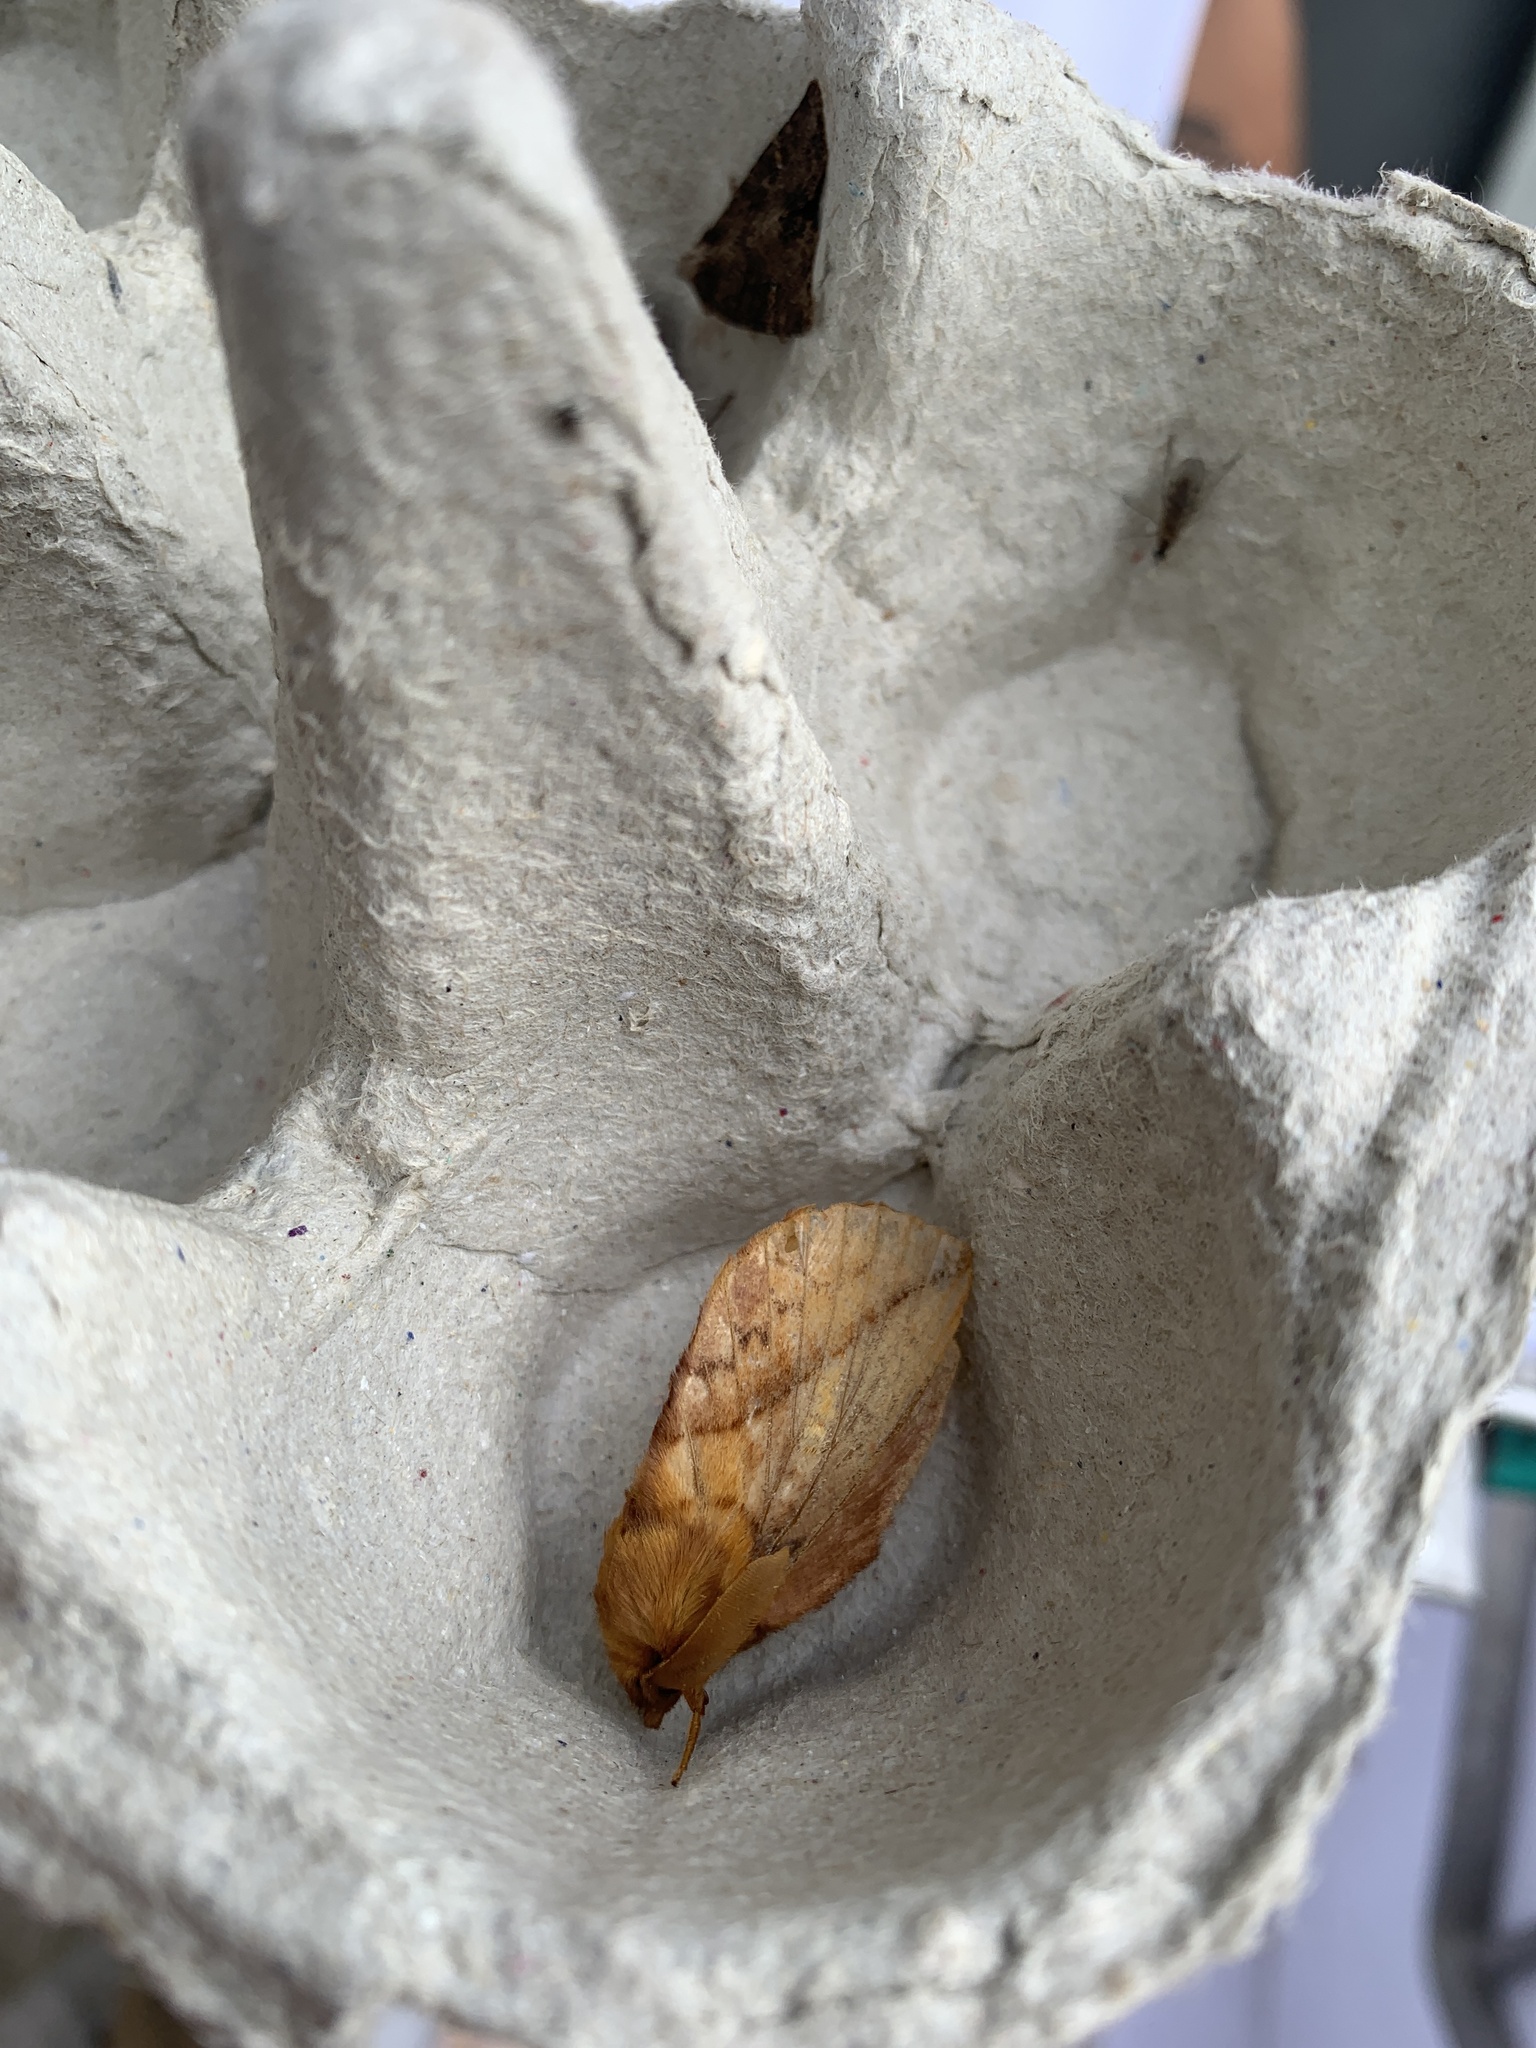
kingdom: Animalia
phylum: Arthropoda
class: Insecta
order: Lepidoptera
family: Lasiocampidae
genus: Euthrix
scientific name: Euthrix potatoria
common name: Drinker
